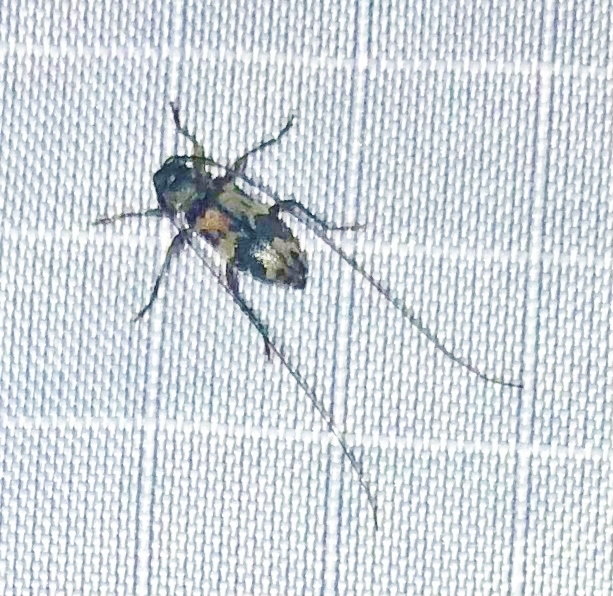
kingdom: Animalia
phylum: Arthropoda
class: Insecta
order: Coleoptera
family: Cerambycidae
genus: Urgleptes
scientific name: Urgleptes querci
